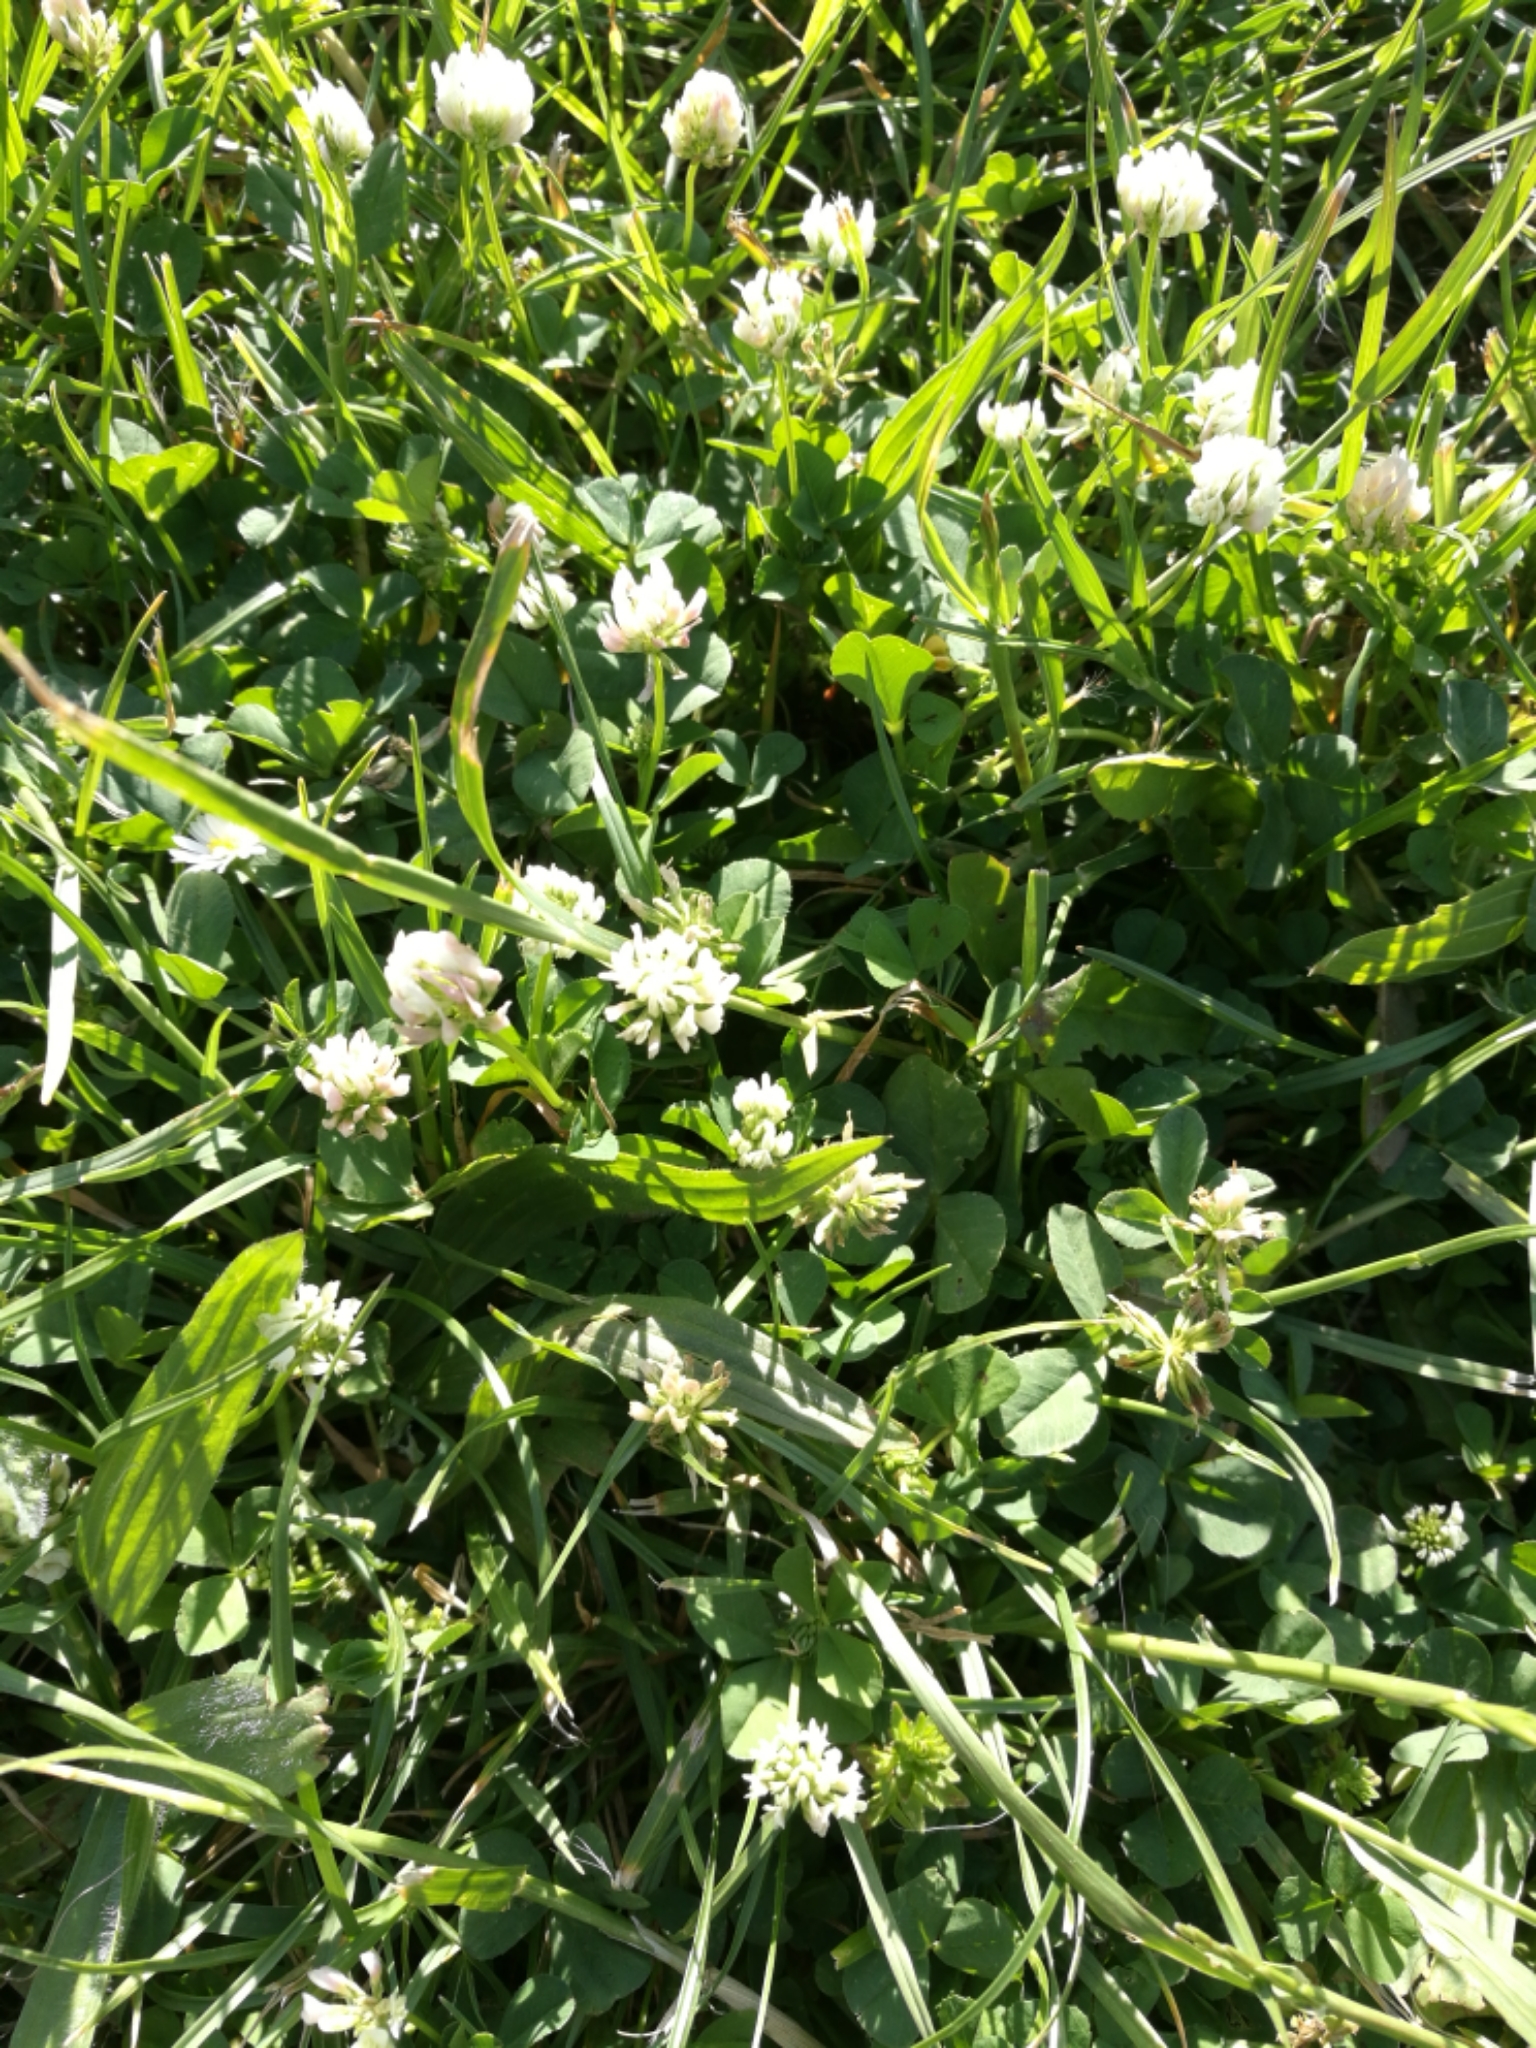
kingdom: Plantae
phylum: Tracheophyta
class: Magnoliopsida
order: Fabales
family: Fabaceae
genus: Trifolium
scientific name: Trifolium repens
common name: White clover
